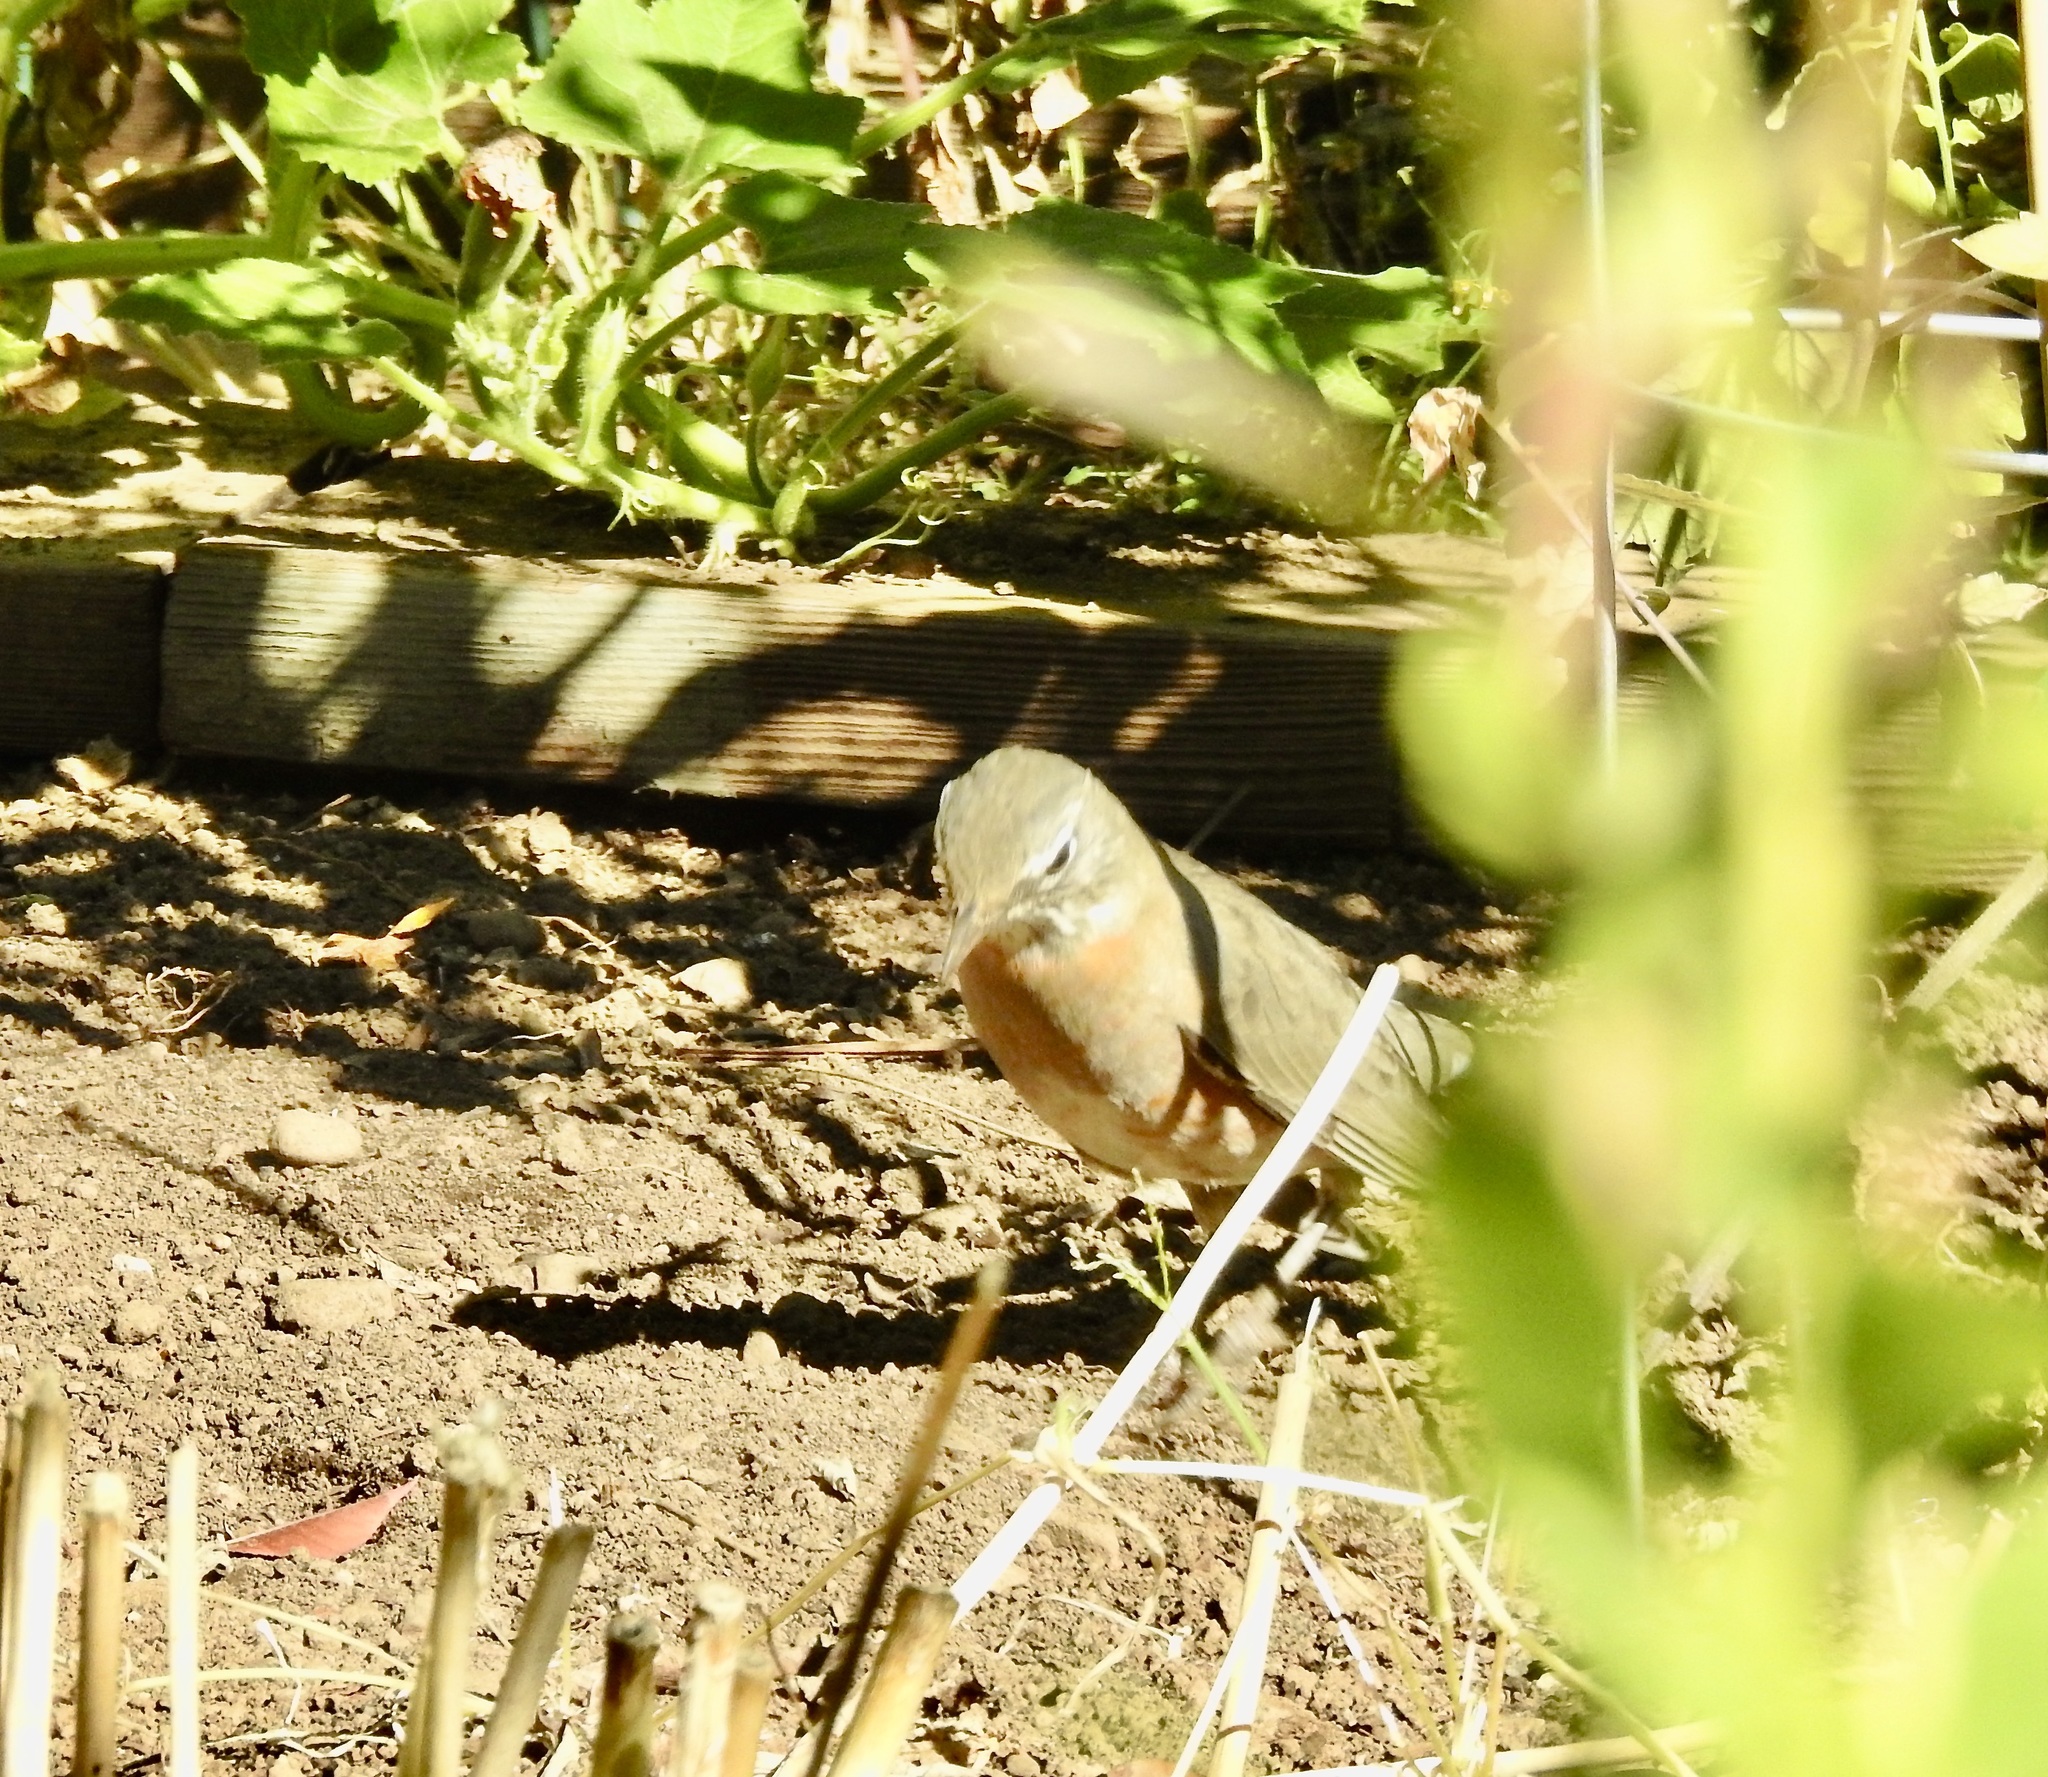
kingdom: Animalia
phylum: Chordata
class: Aves
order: Passeriformes
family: Turdidae
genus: Turdus
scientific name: Turdus migratorius
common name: American robin
